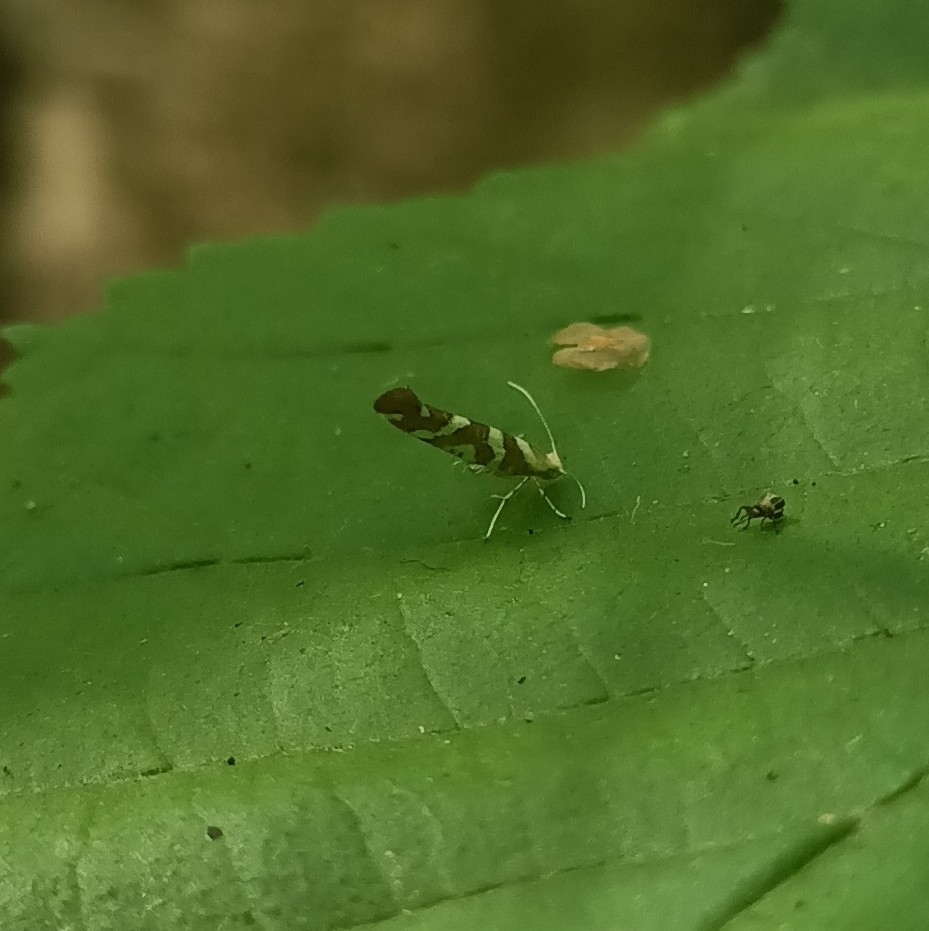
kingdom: Animalia
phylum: Arthropoda
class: Insecta
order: Lepidoptera
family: Argyresthiidae
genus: Argyresthia
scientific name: Argyresthia goedartella
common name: Golden argent
